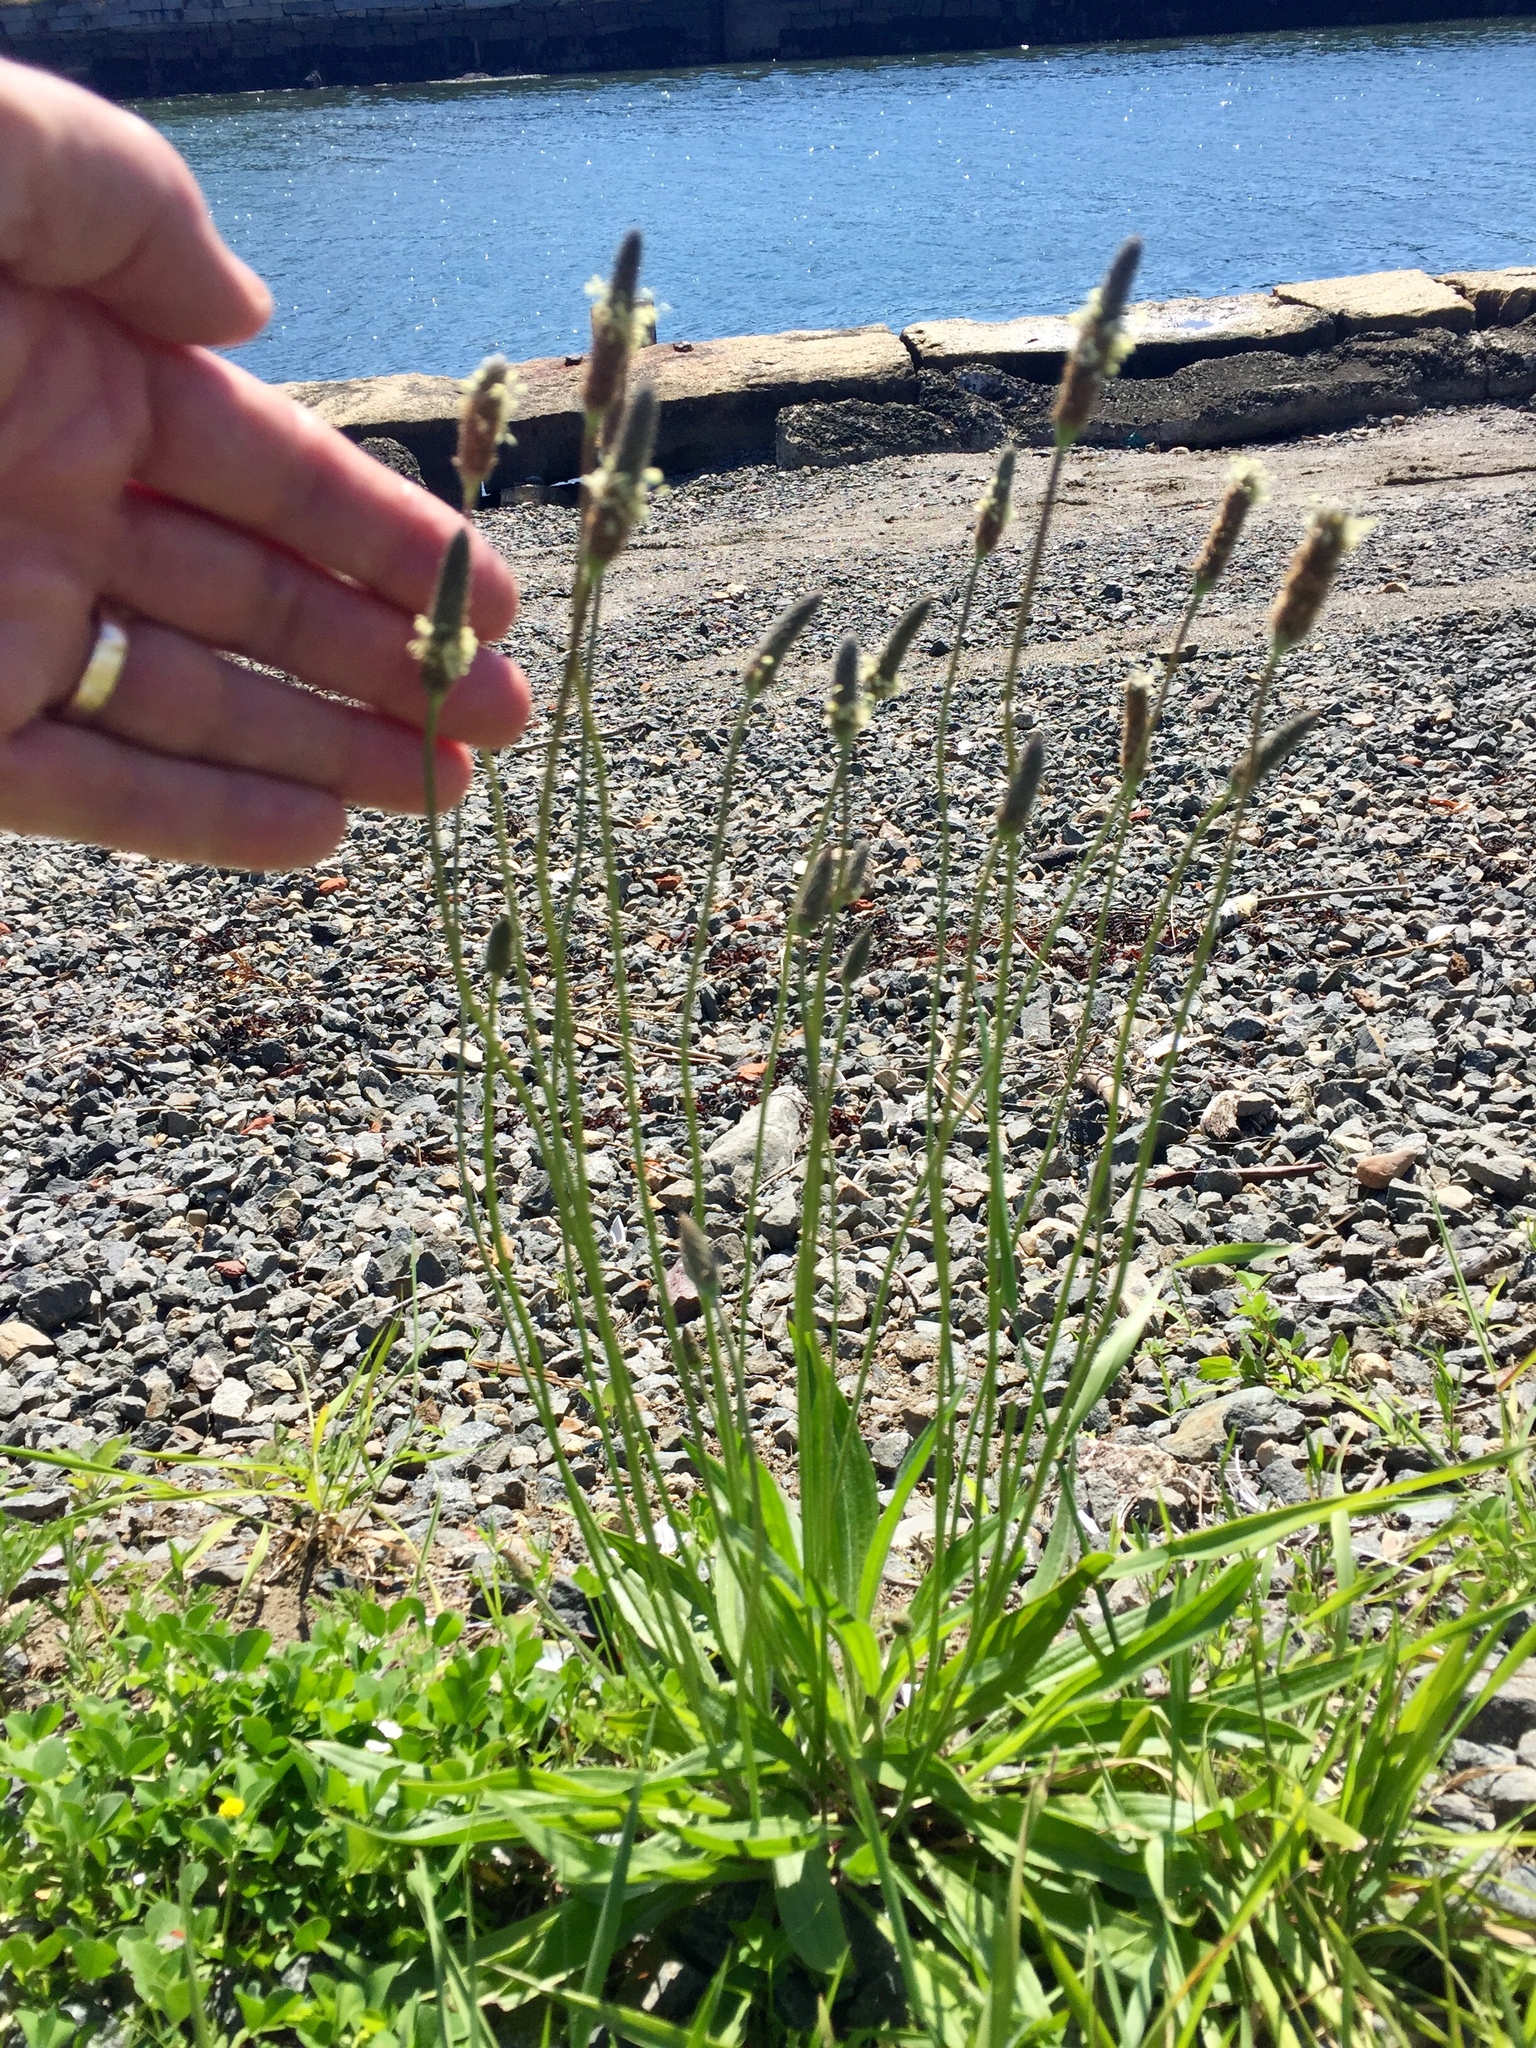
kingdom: Plantae
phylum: Tracheophyta
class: Magnoliopsida
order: Lamiales
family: Plantaginaceae
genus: Plantago
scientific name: Plantago lanceolata
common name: Ribwort plantain
